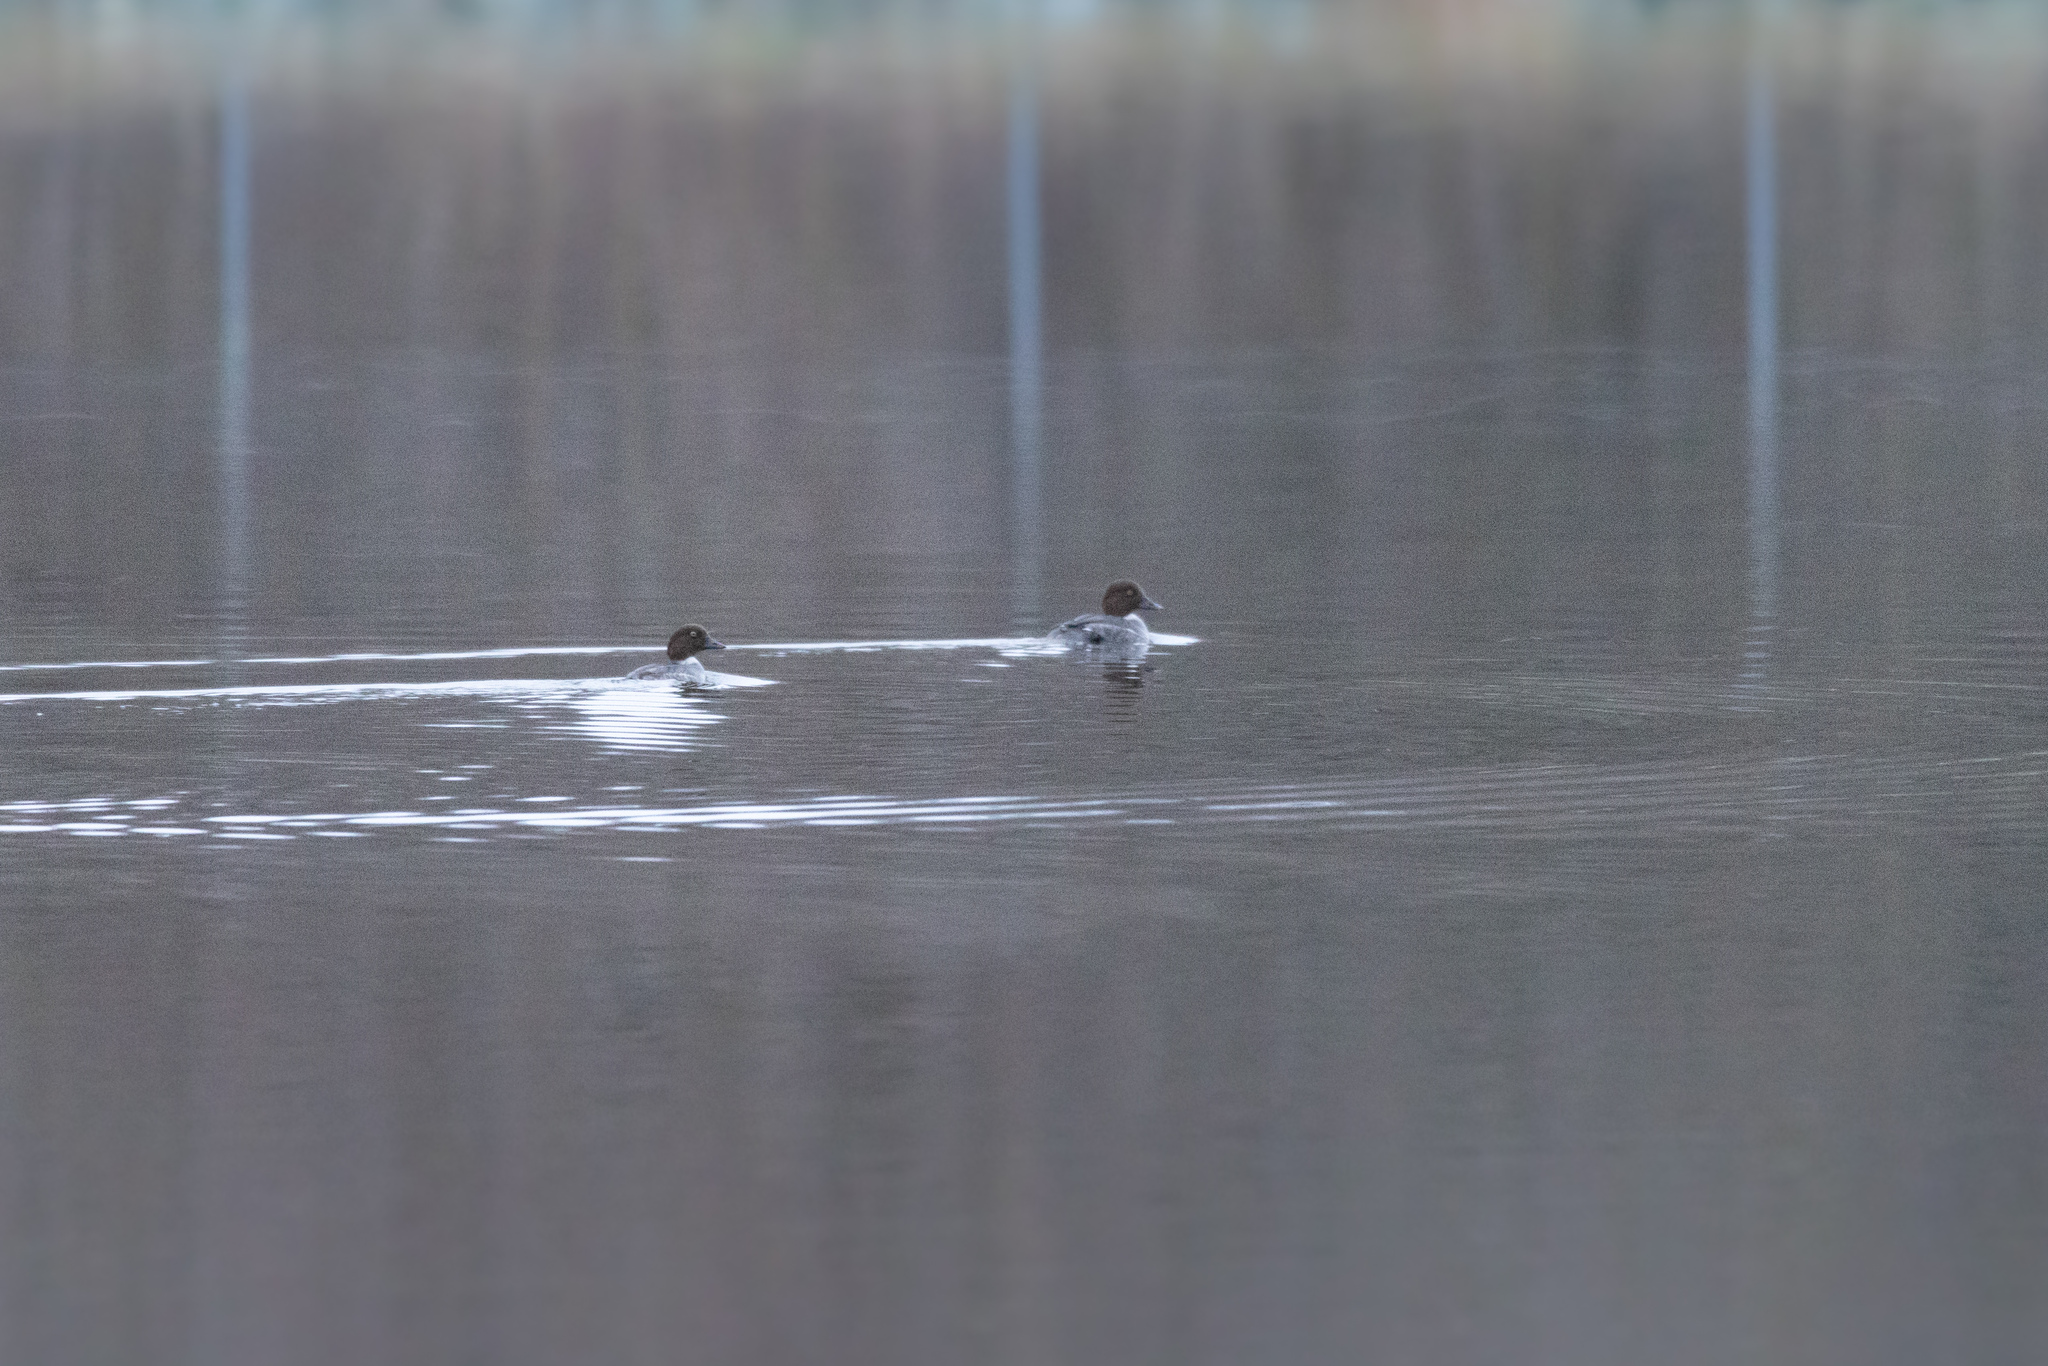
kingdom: Animalia
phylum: Chordata
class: Aves
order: Anseriformes
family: Anatidae
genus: Bucephala
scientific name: Bucephala clangula
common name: Common goldeneye
